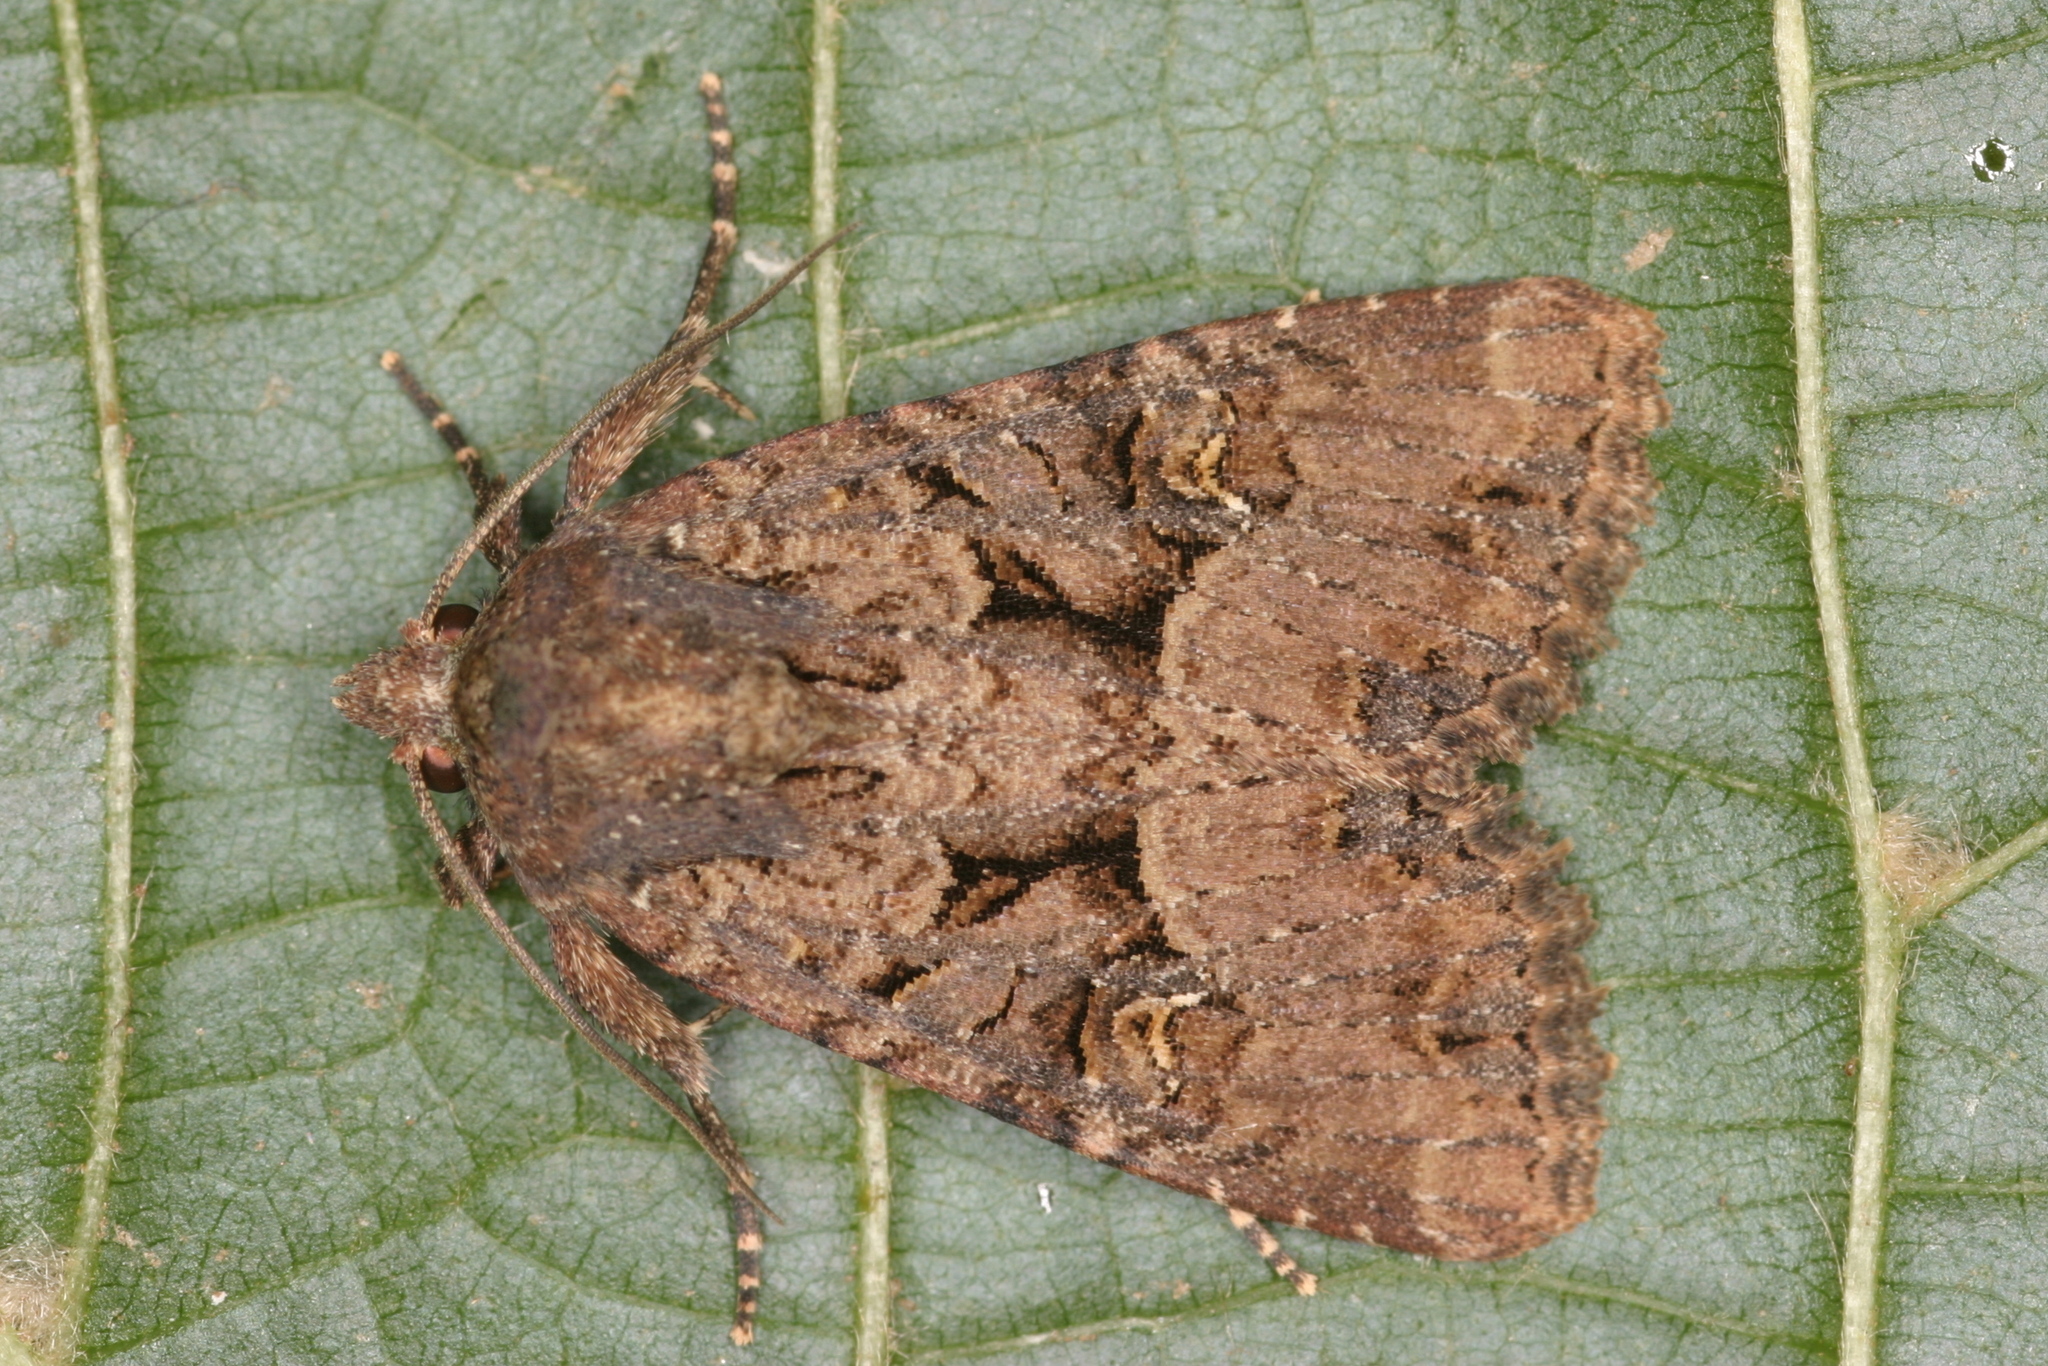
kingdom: Animalia
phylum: Arthropoda
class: Insecta
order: Lepidoptera
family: Noctuidae
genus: Mesapamea
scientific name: Mesapamea
